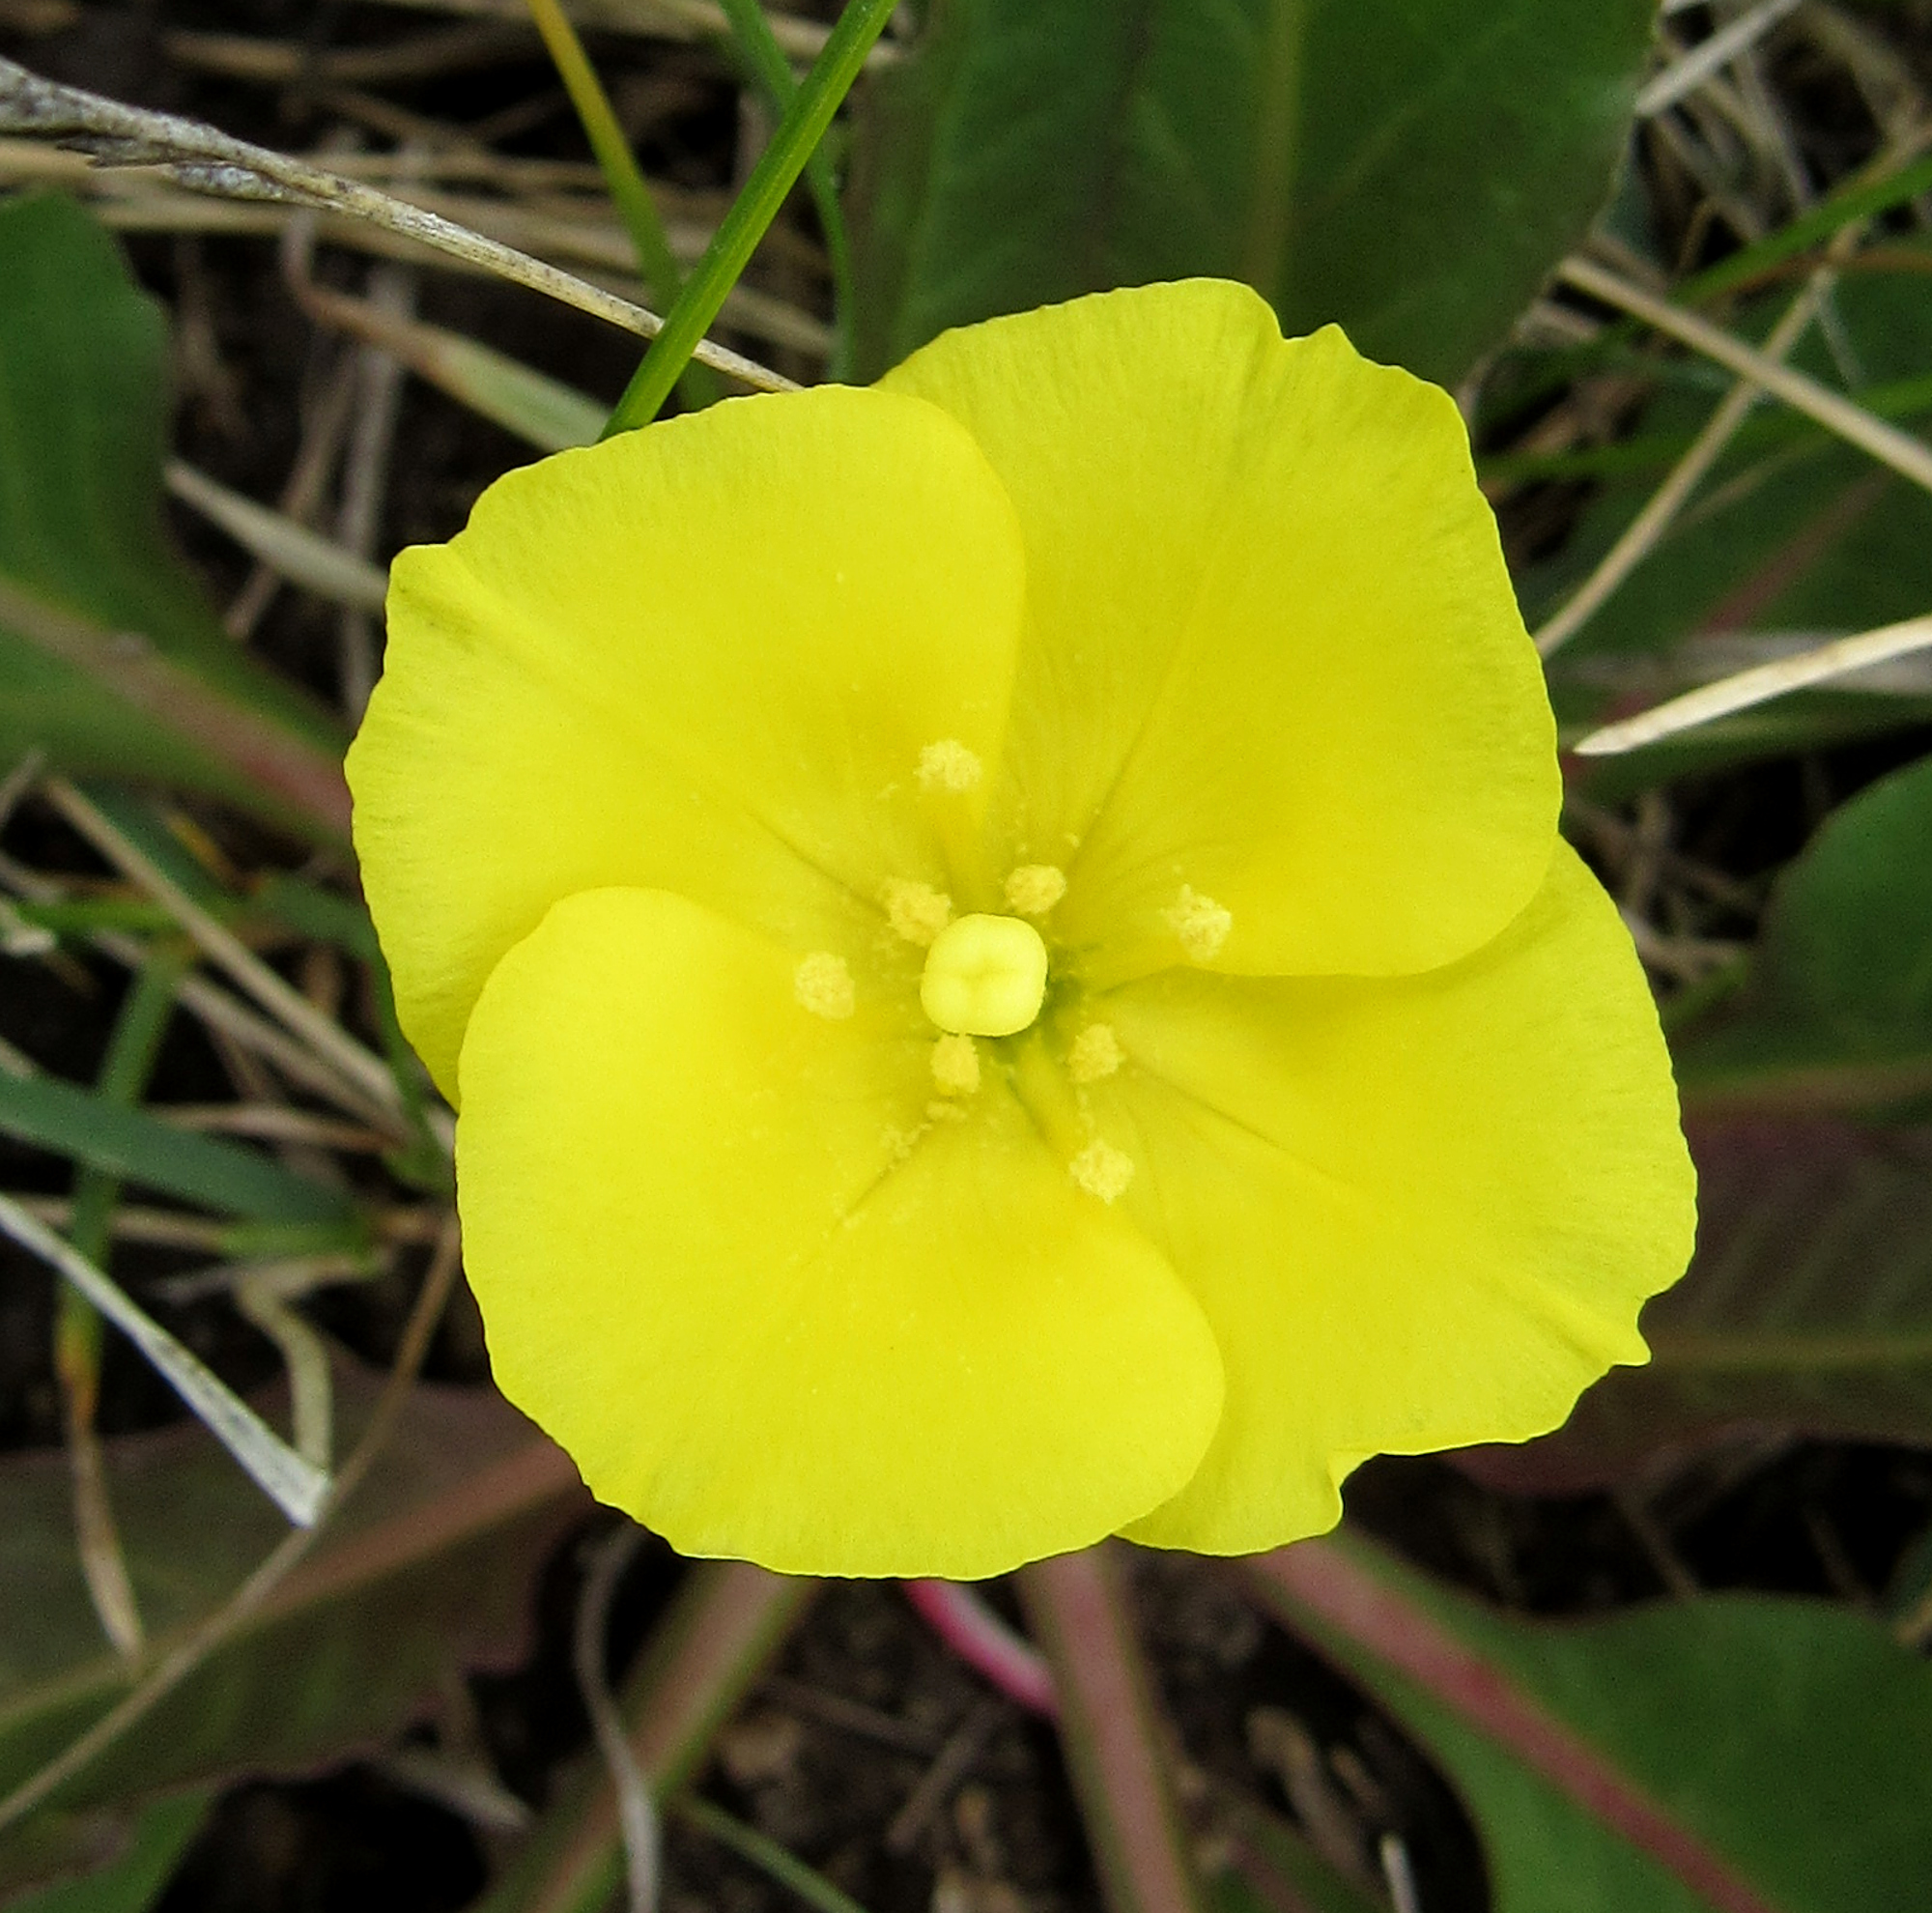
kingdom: Plantae
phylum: Tracheophyta
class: Magnoliopsida
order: Myrtales
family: Onagraceae
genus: Taraxia
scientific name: Taraxia subacaulis
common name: Diffuseflower evening primrose
